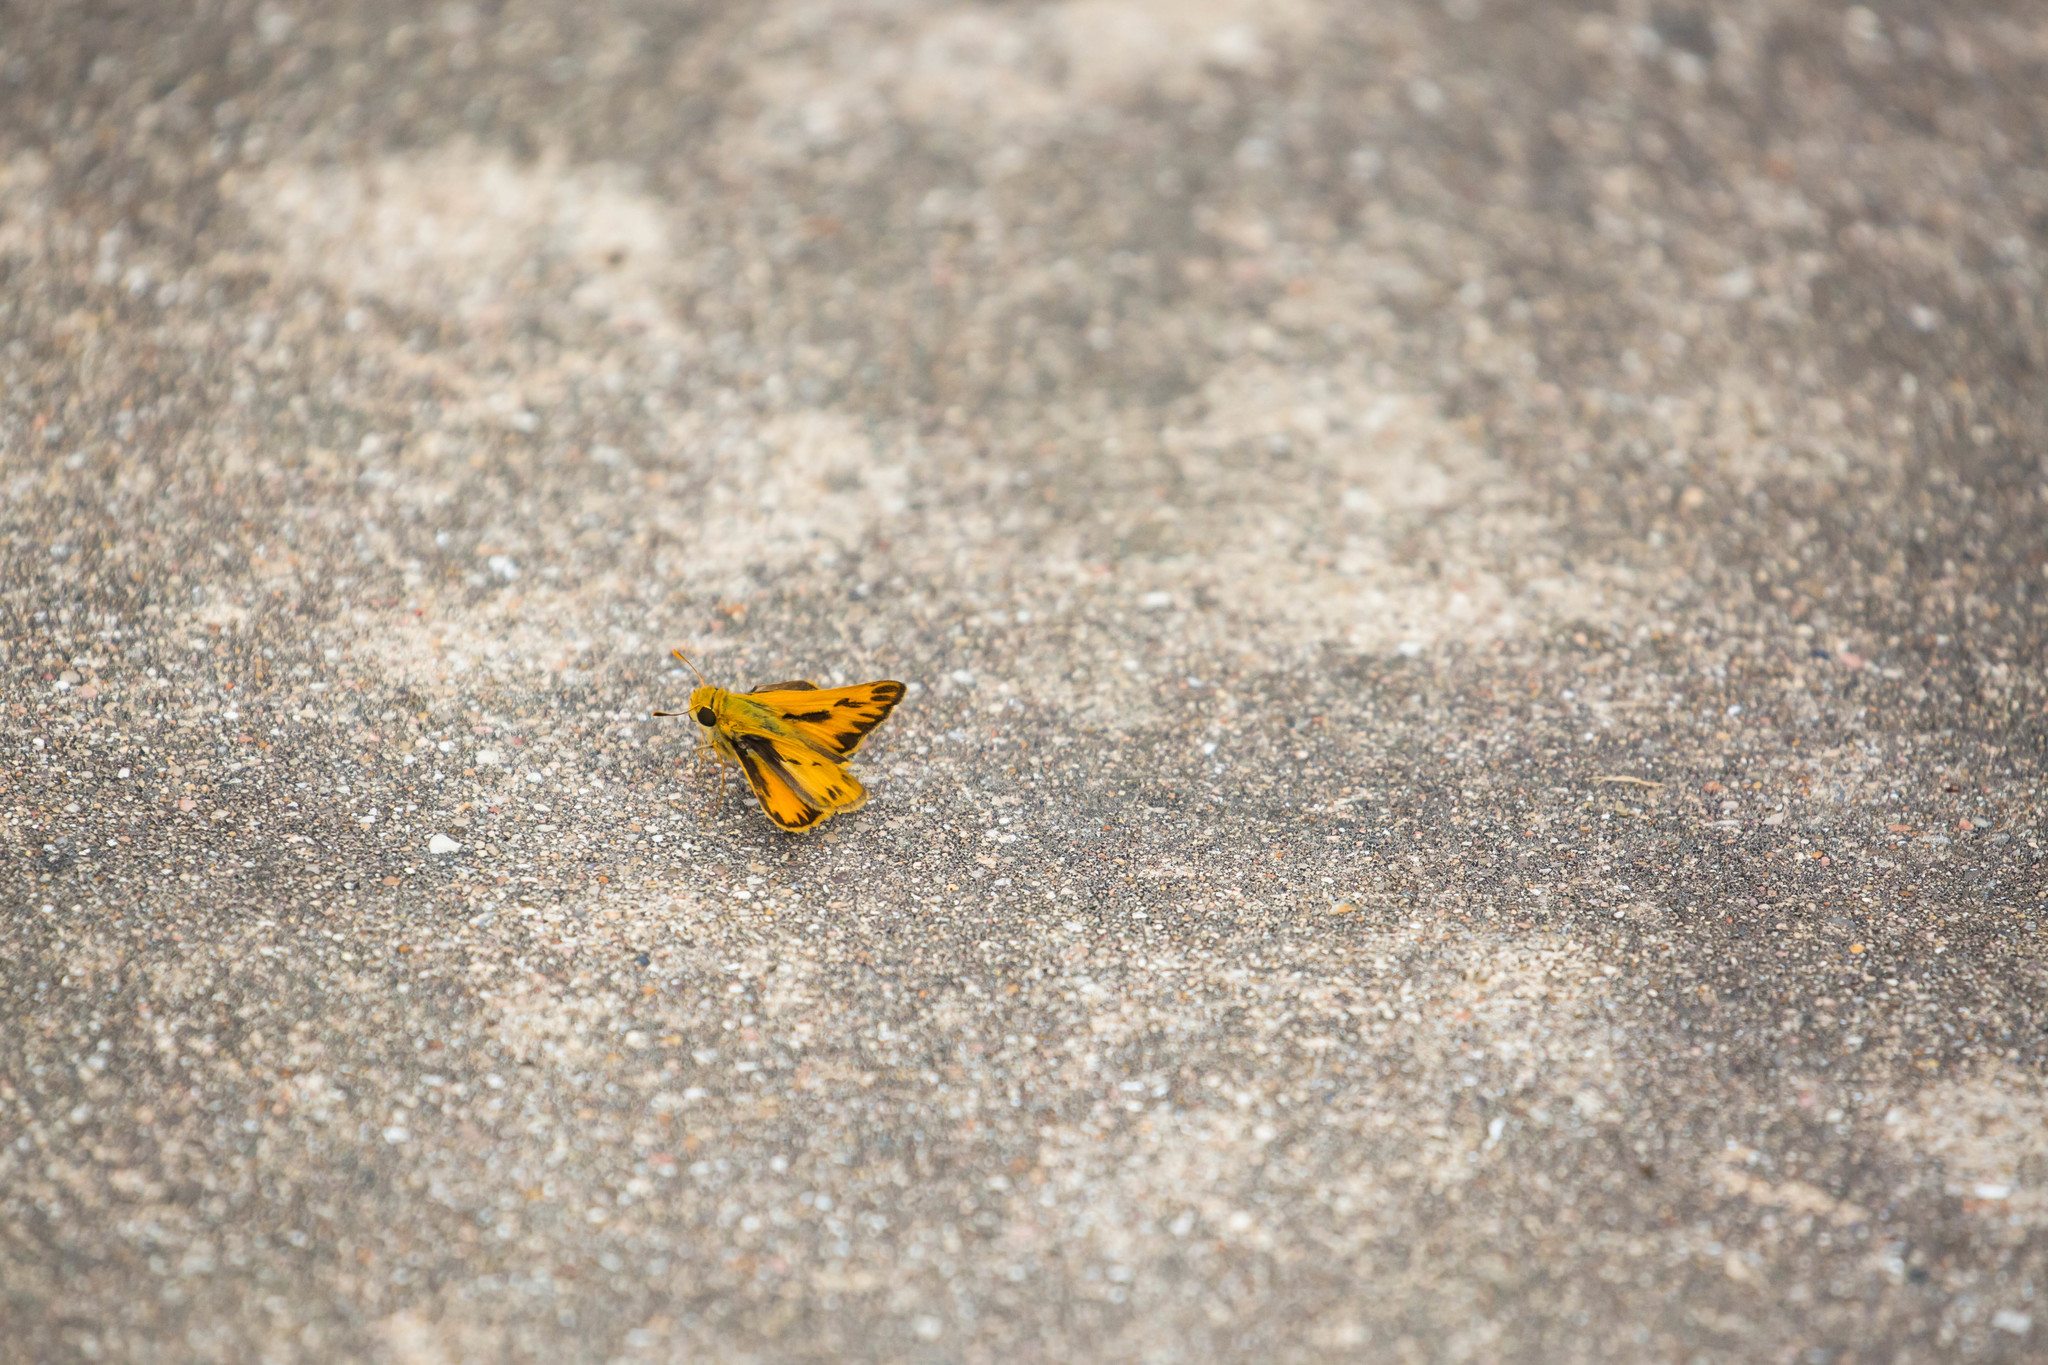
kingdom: Animalia
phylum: Arthropoda
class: Insecta
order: Lepidoptera
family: Hesperiidae
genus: Hylephila
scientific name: Hylephila phyleus
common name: Fiery skipper
